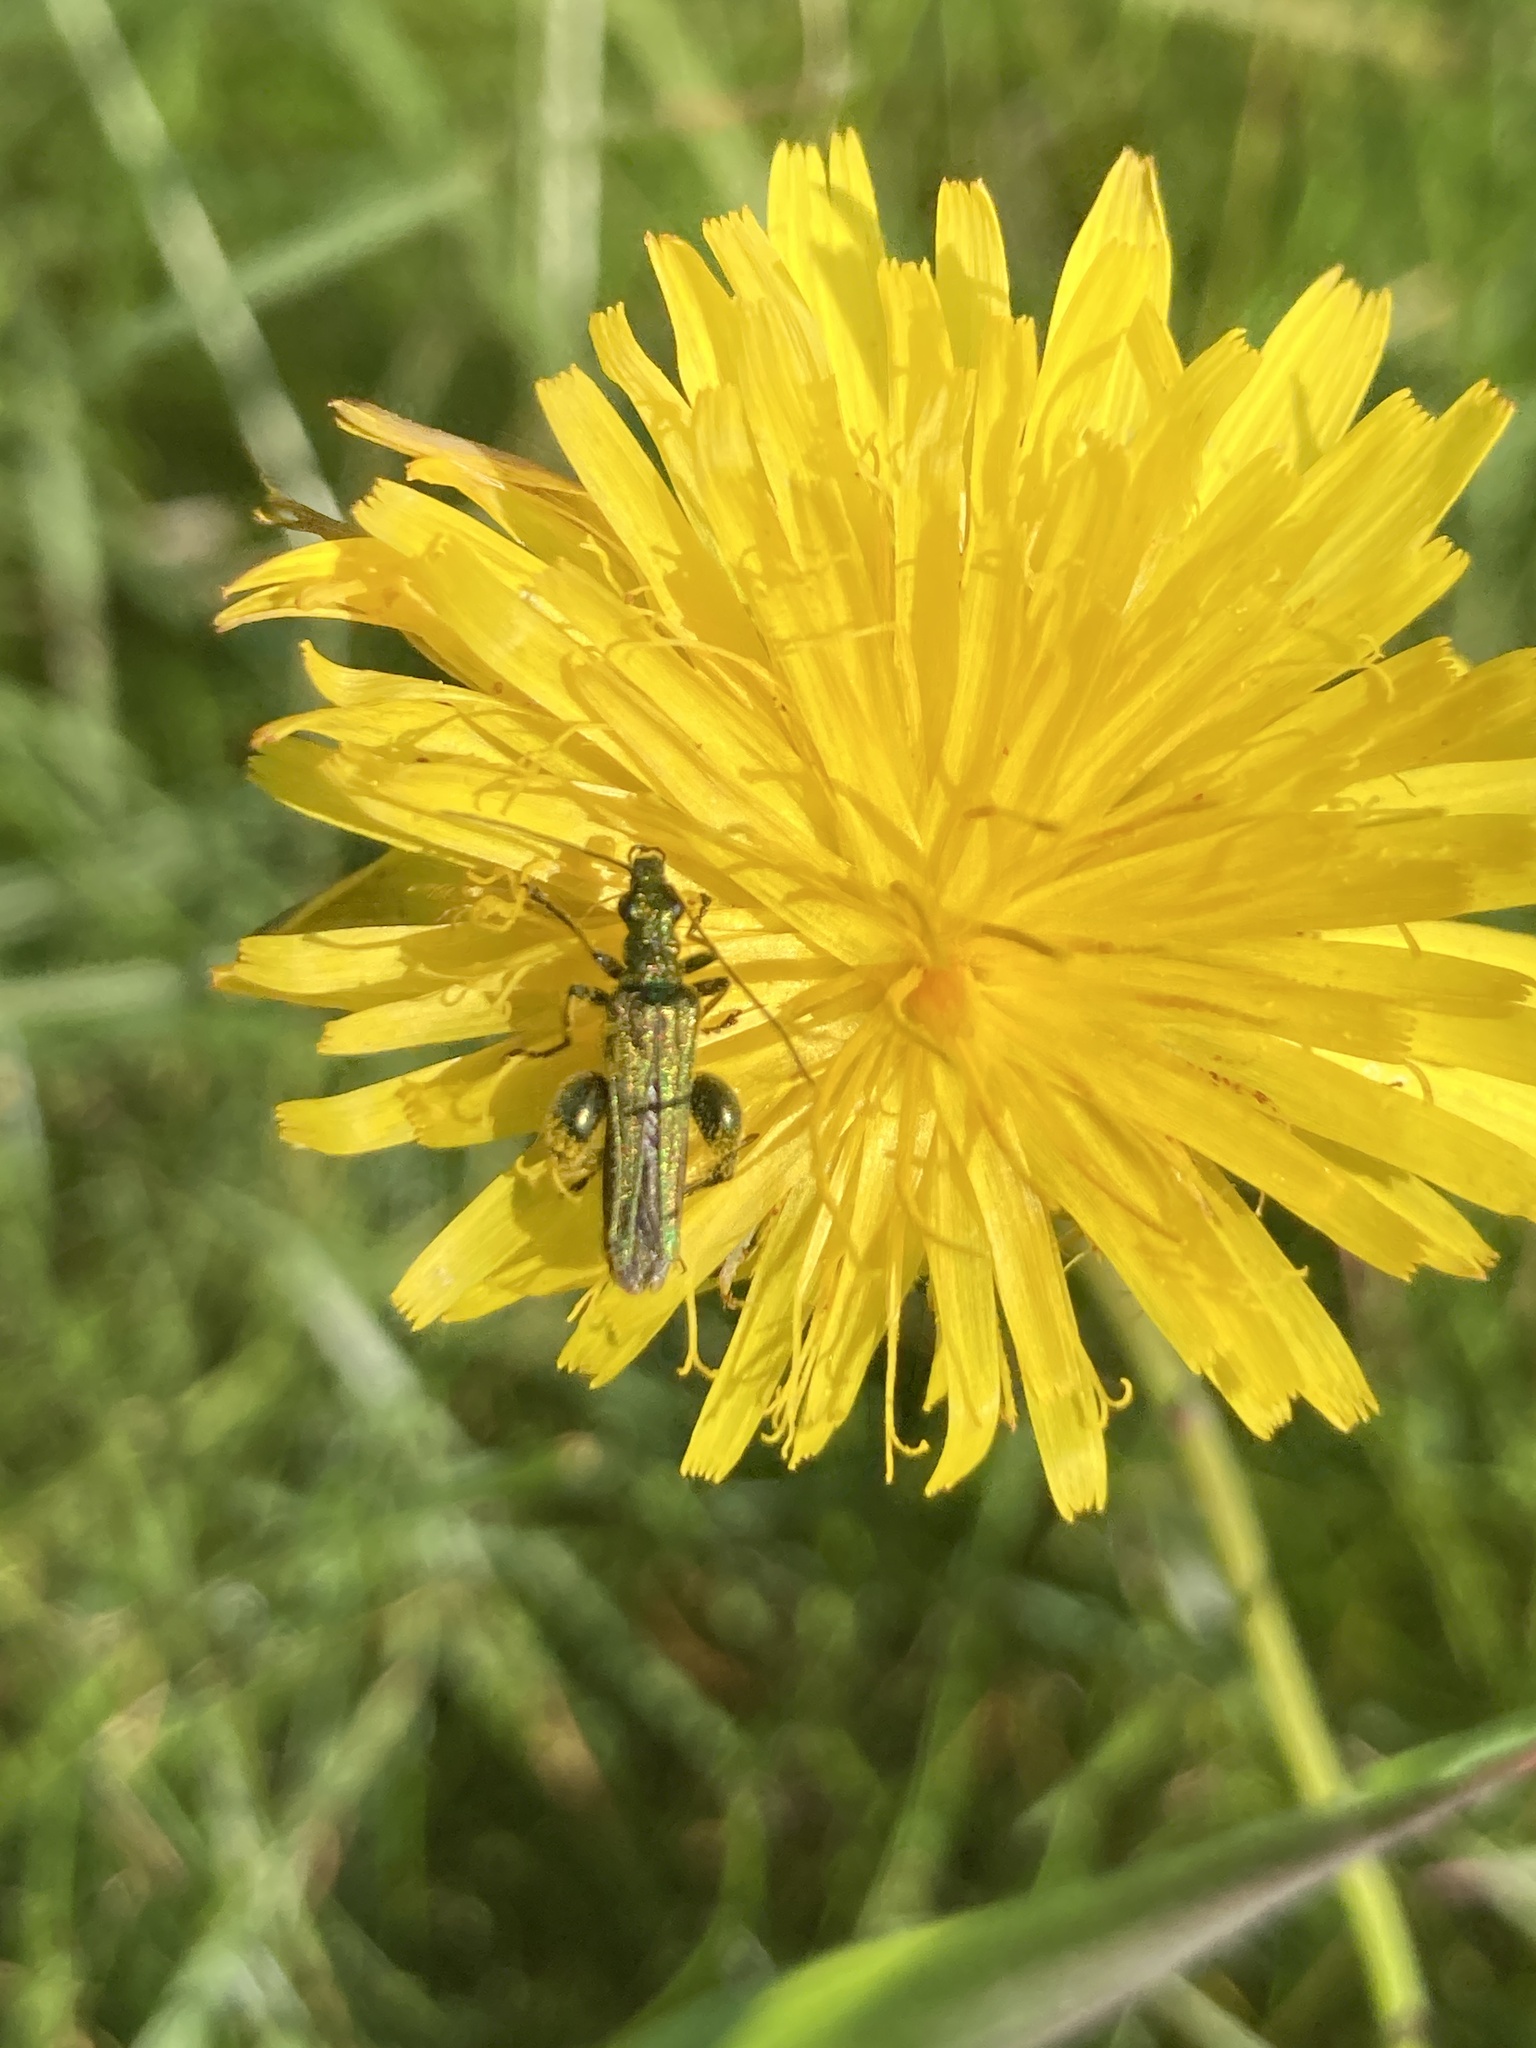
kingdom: Animalia
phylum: Arthropoda
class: Insecta
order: Coleoptera
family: Oedemeridae
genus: Oedemera
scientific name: Oedemera nobilis
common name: Swollen-thighed beetle
